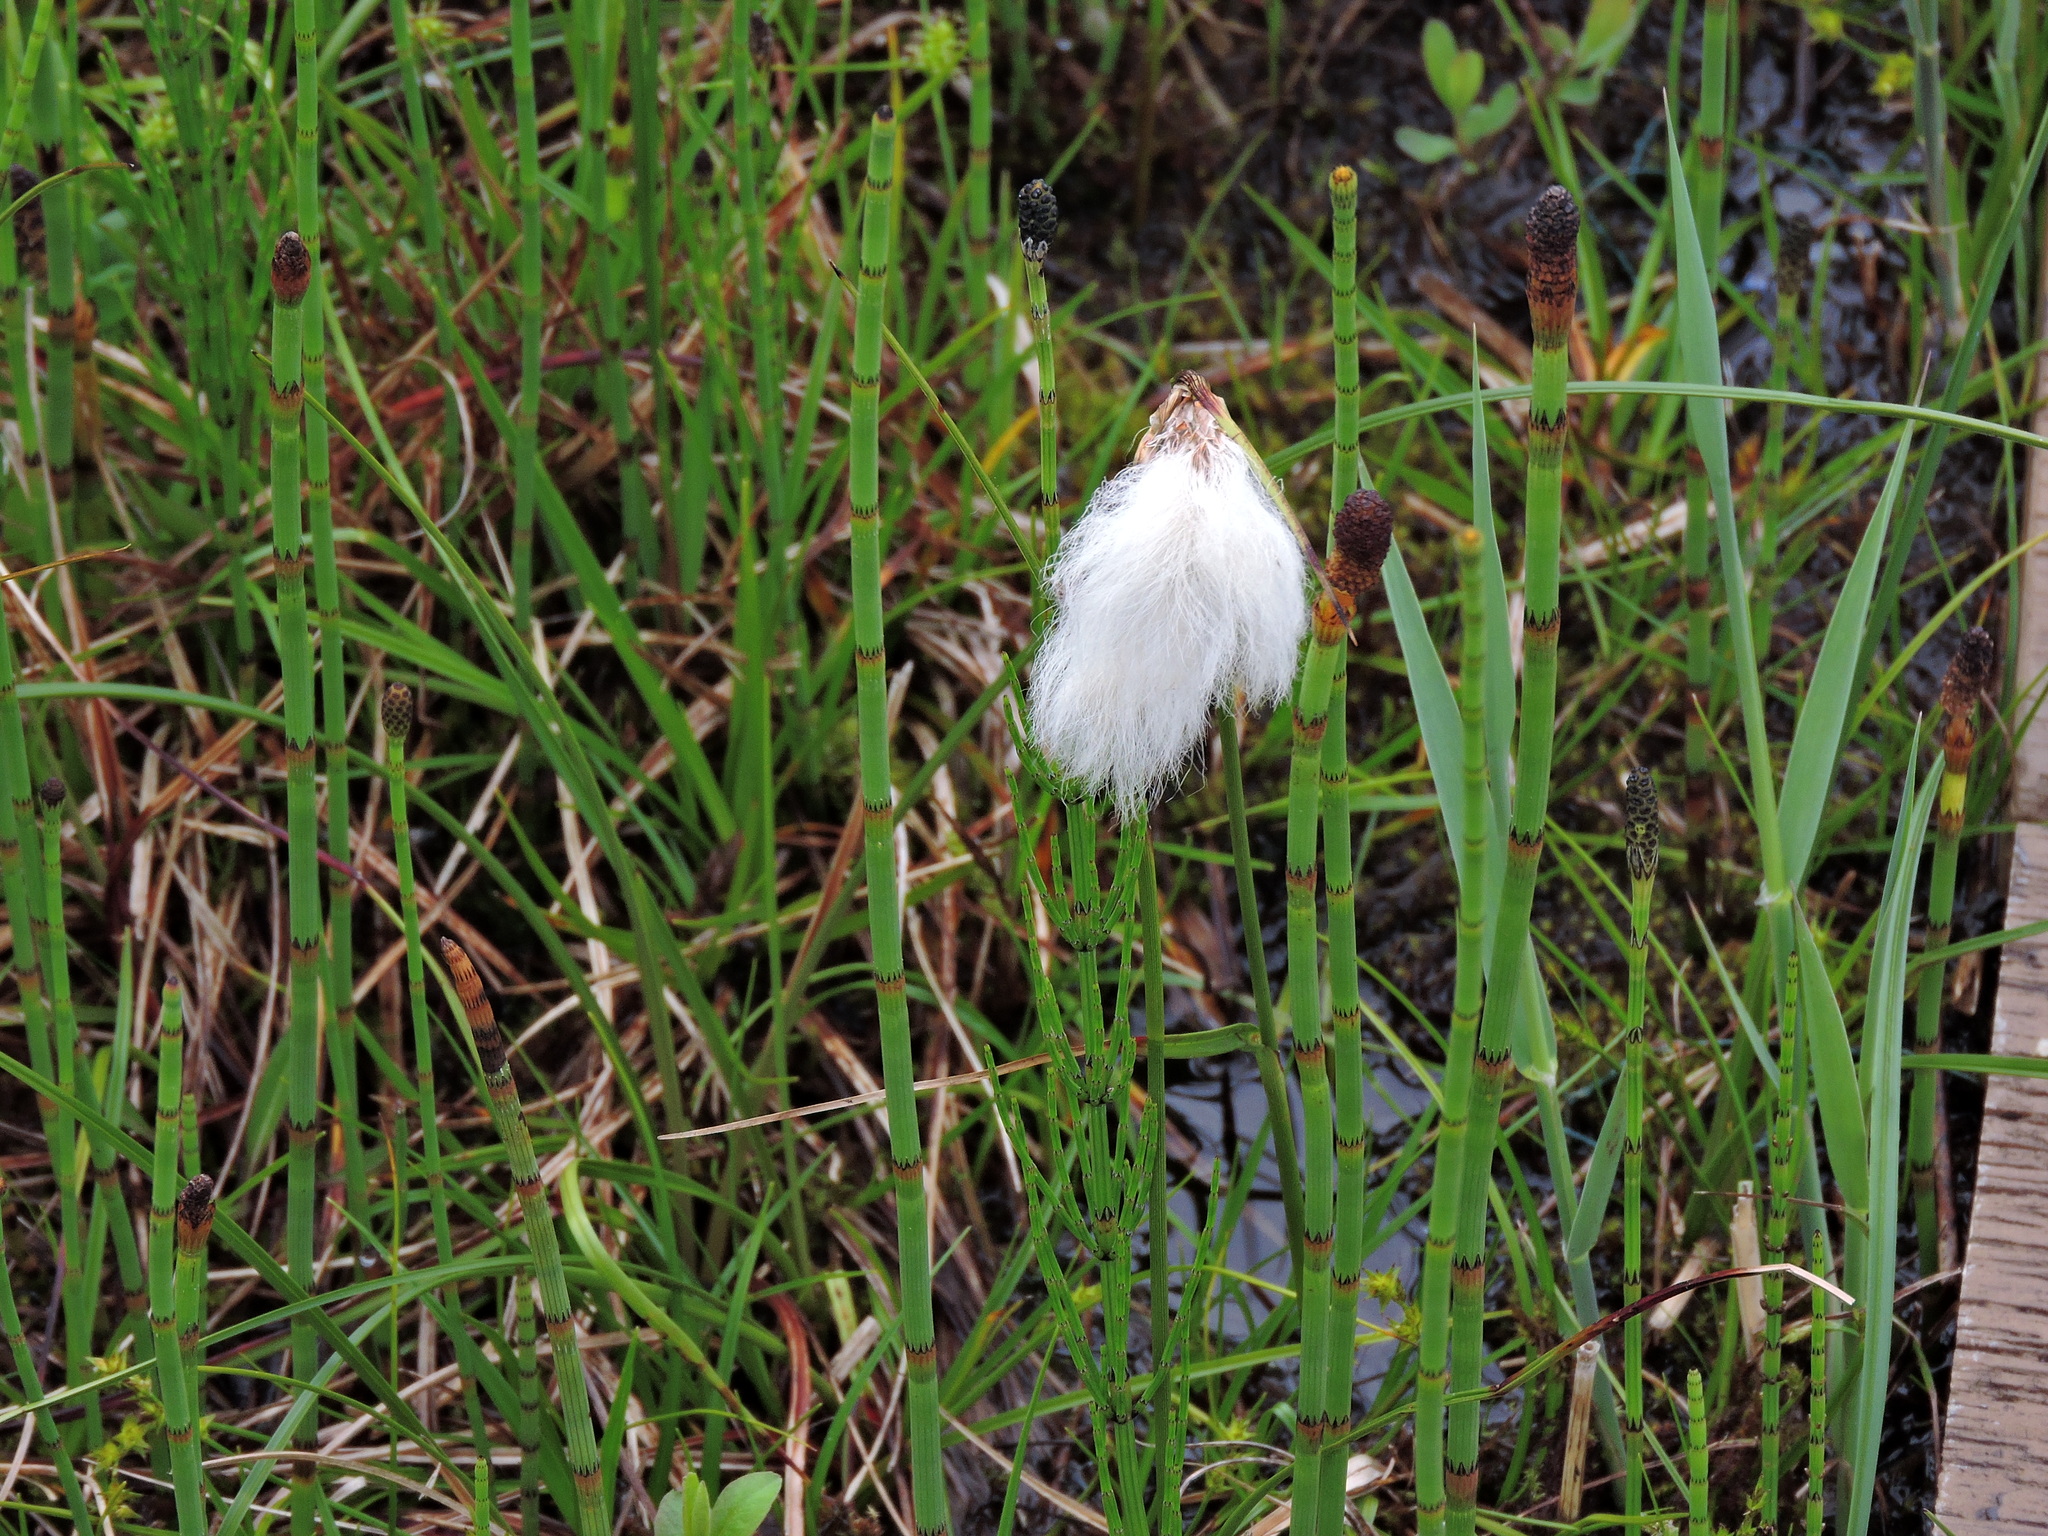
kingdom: Plantae
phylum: Tracheophyta
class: Liliopsida
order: Poales
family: Cyperaceae
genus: Eriophorum
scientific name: Eriophorum angustifolium
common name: Common cottongrass
